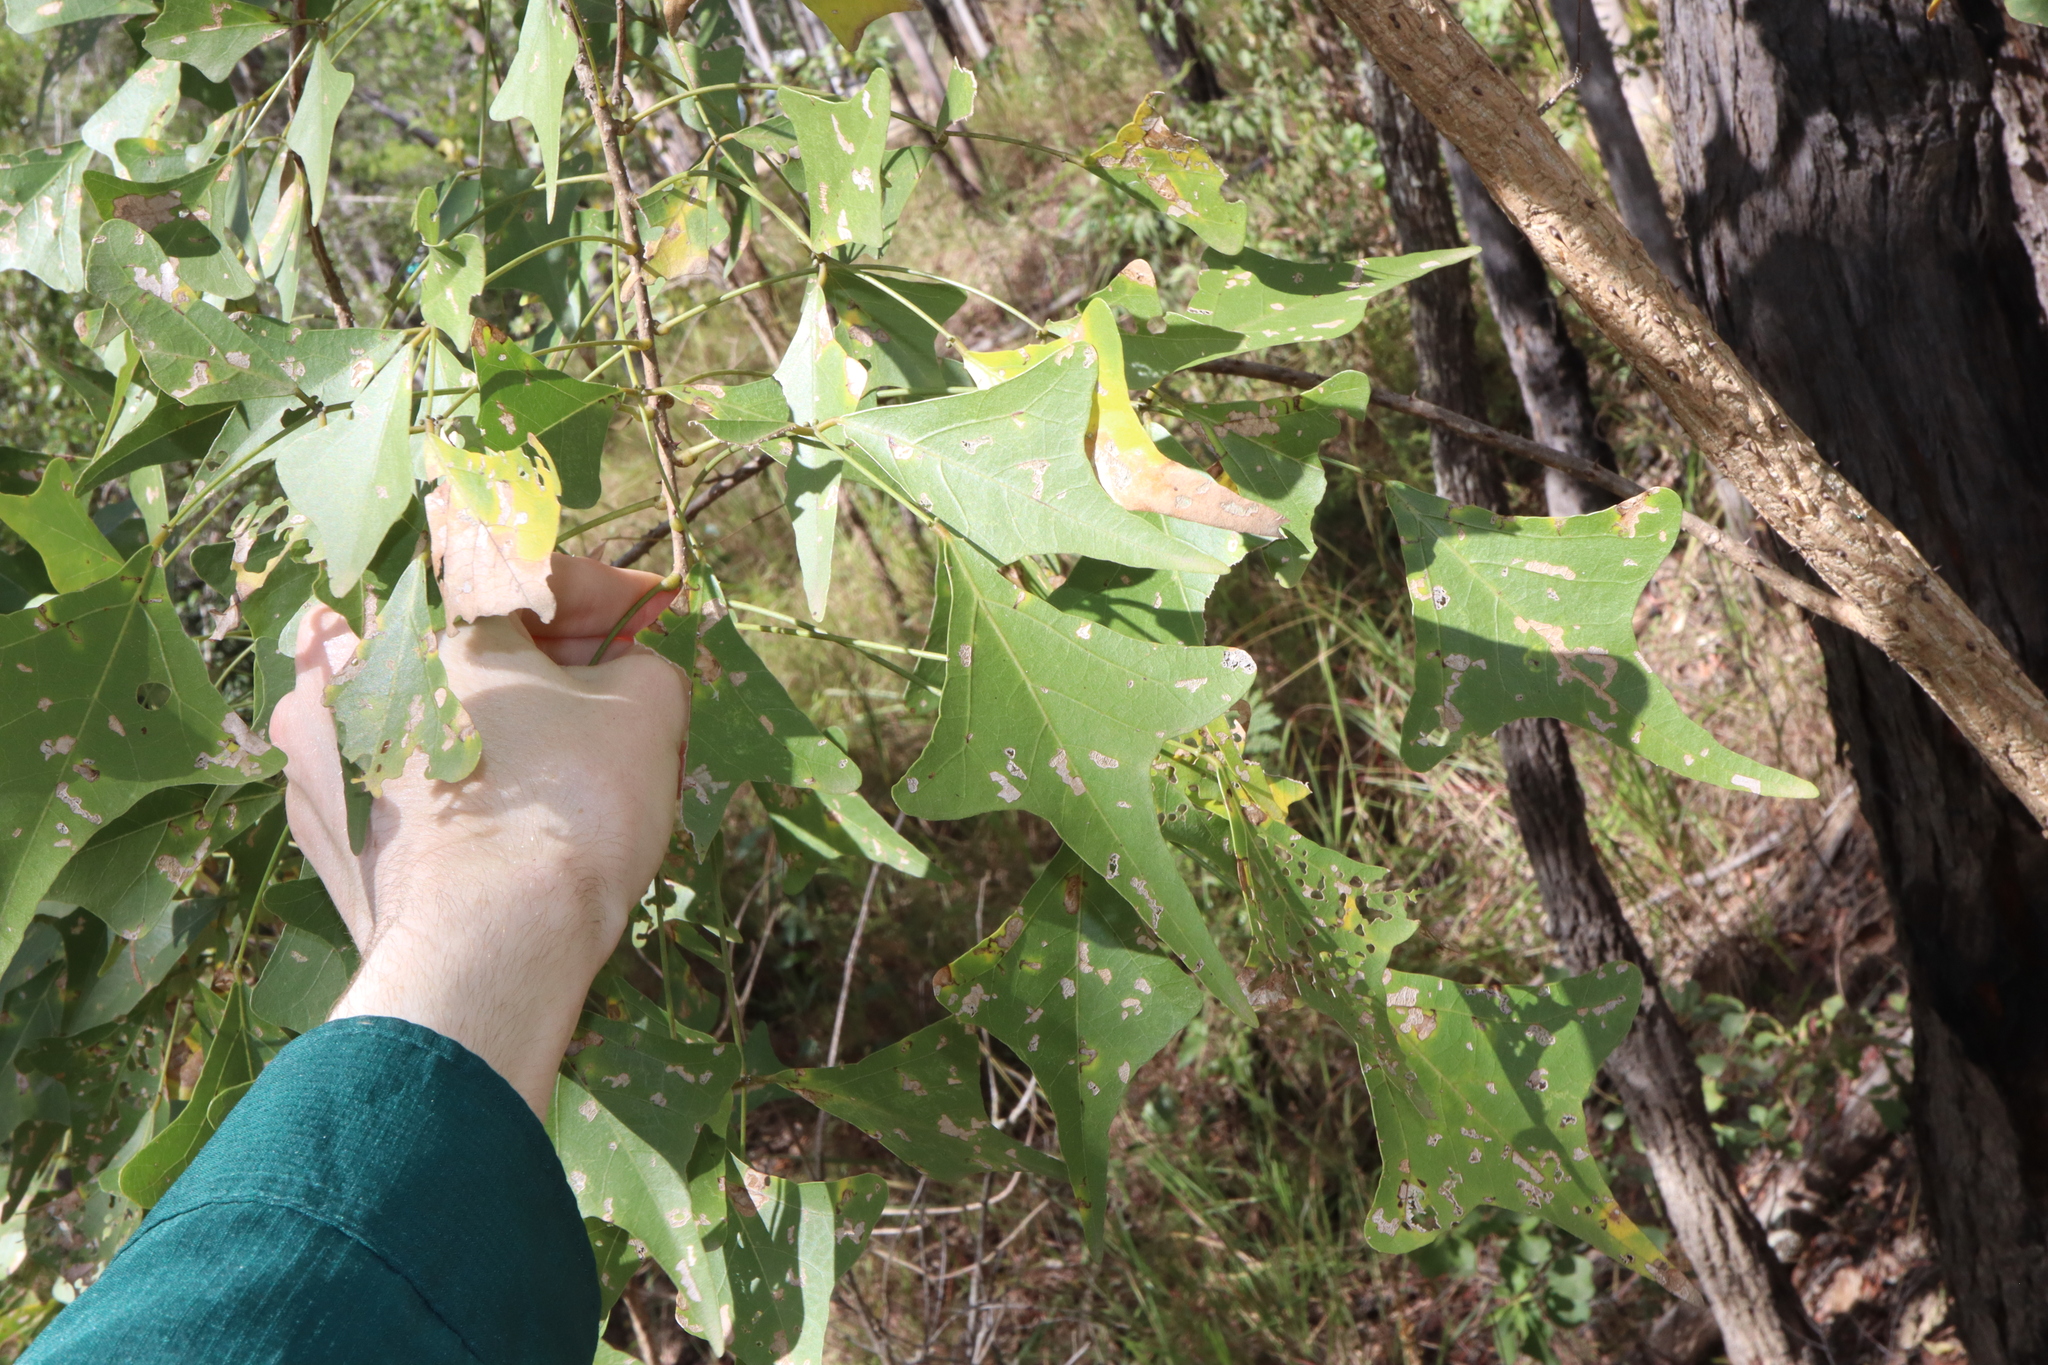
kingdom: Plantae
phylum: Tracheophyta
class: Magnoliopsida
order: Fabales
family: Fabaceae
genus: Erythrina
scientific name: Erythrina vespertilio
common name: Bat-wing coral tree
